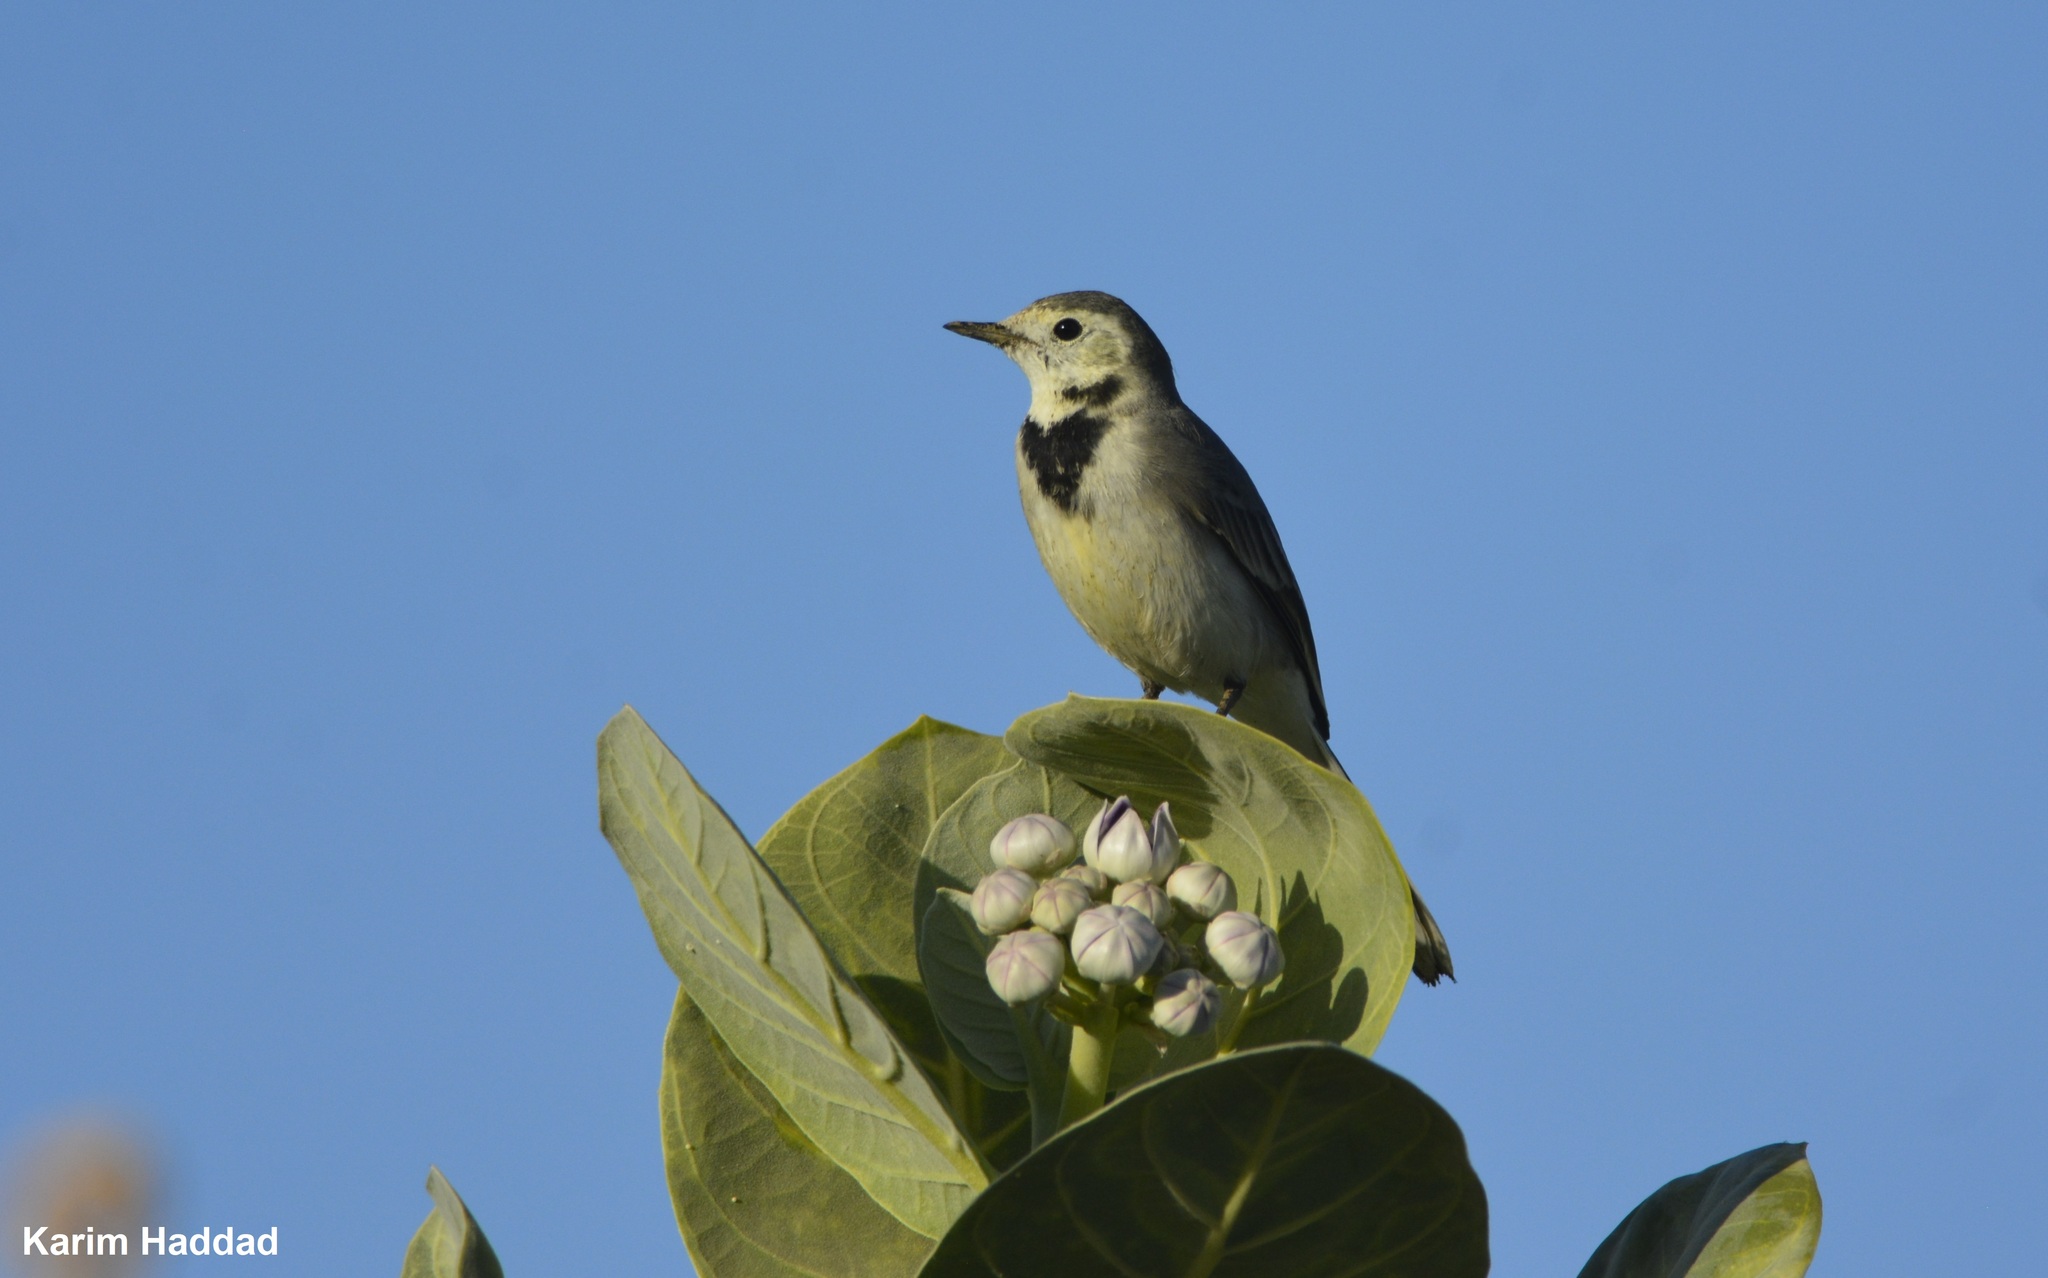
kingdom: Animalia
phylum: Chordata
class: Aves
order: Passeriformes
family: Motacillidae
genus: Motacilla
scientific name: Motacilla alba
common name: White wagtail
